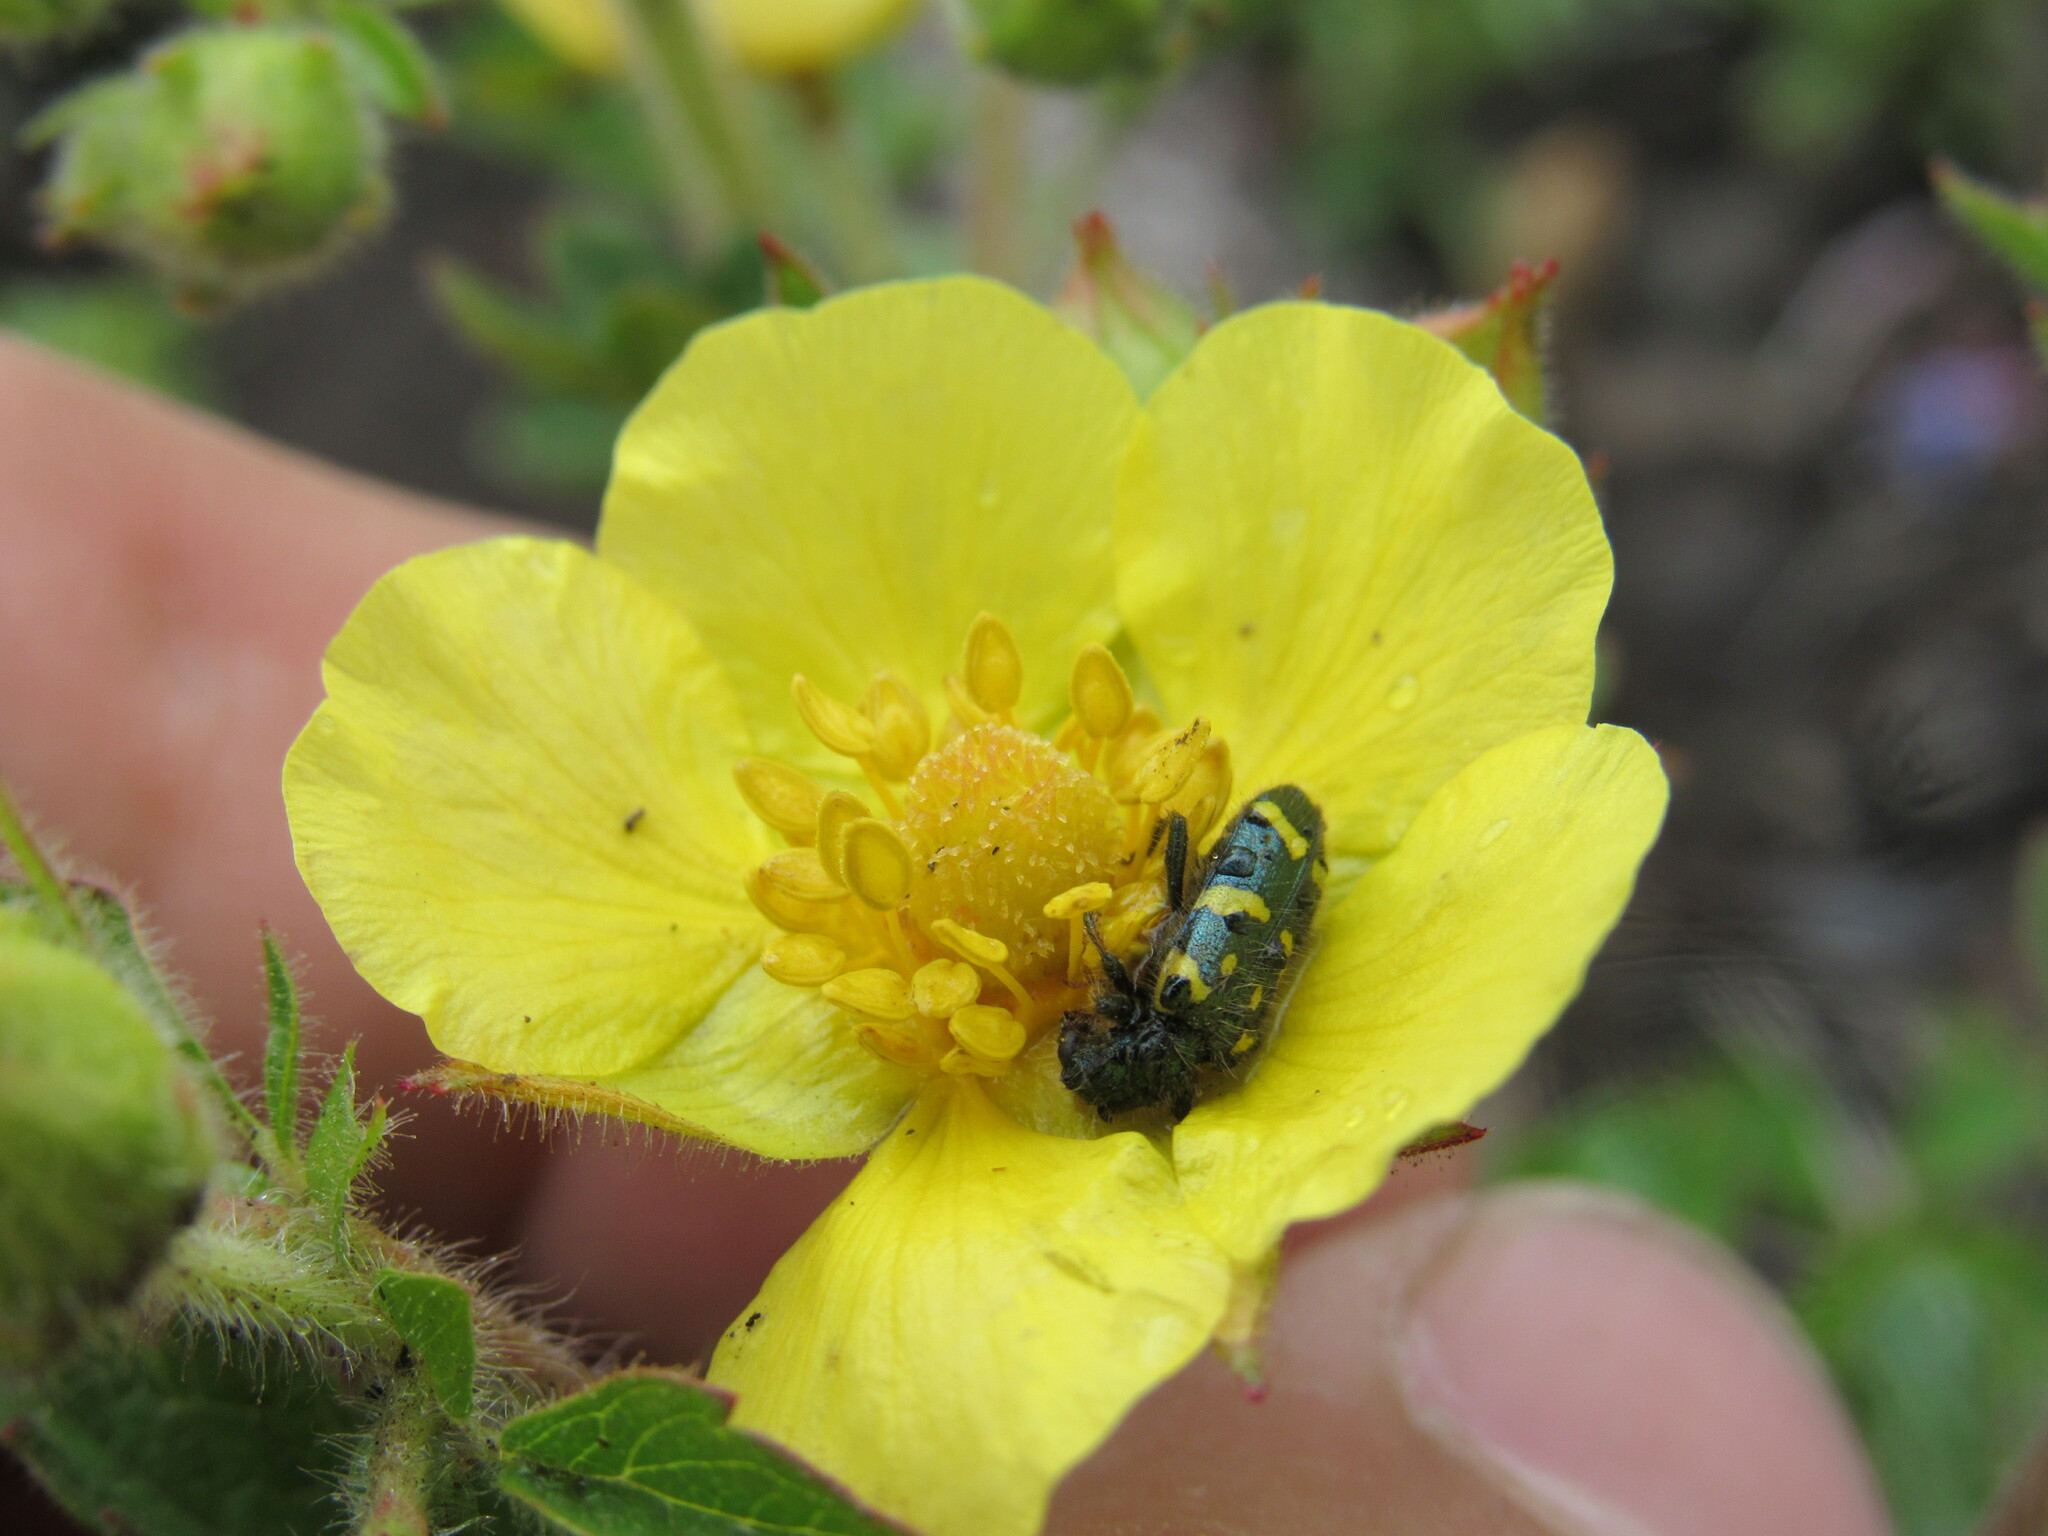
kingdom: Animalia
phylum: Arthropoda
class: Insecta
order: Coleoptera
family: Cleridae
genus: Trichodes
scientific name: Trichodes ornatus
